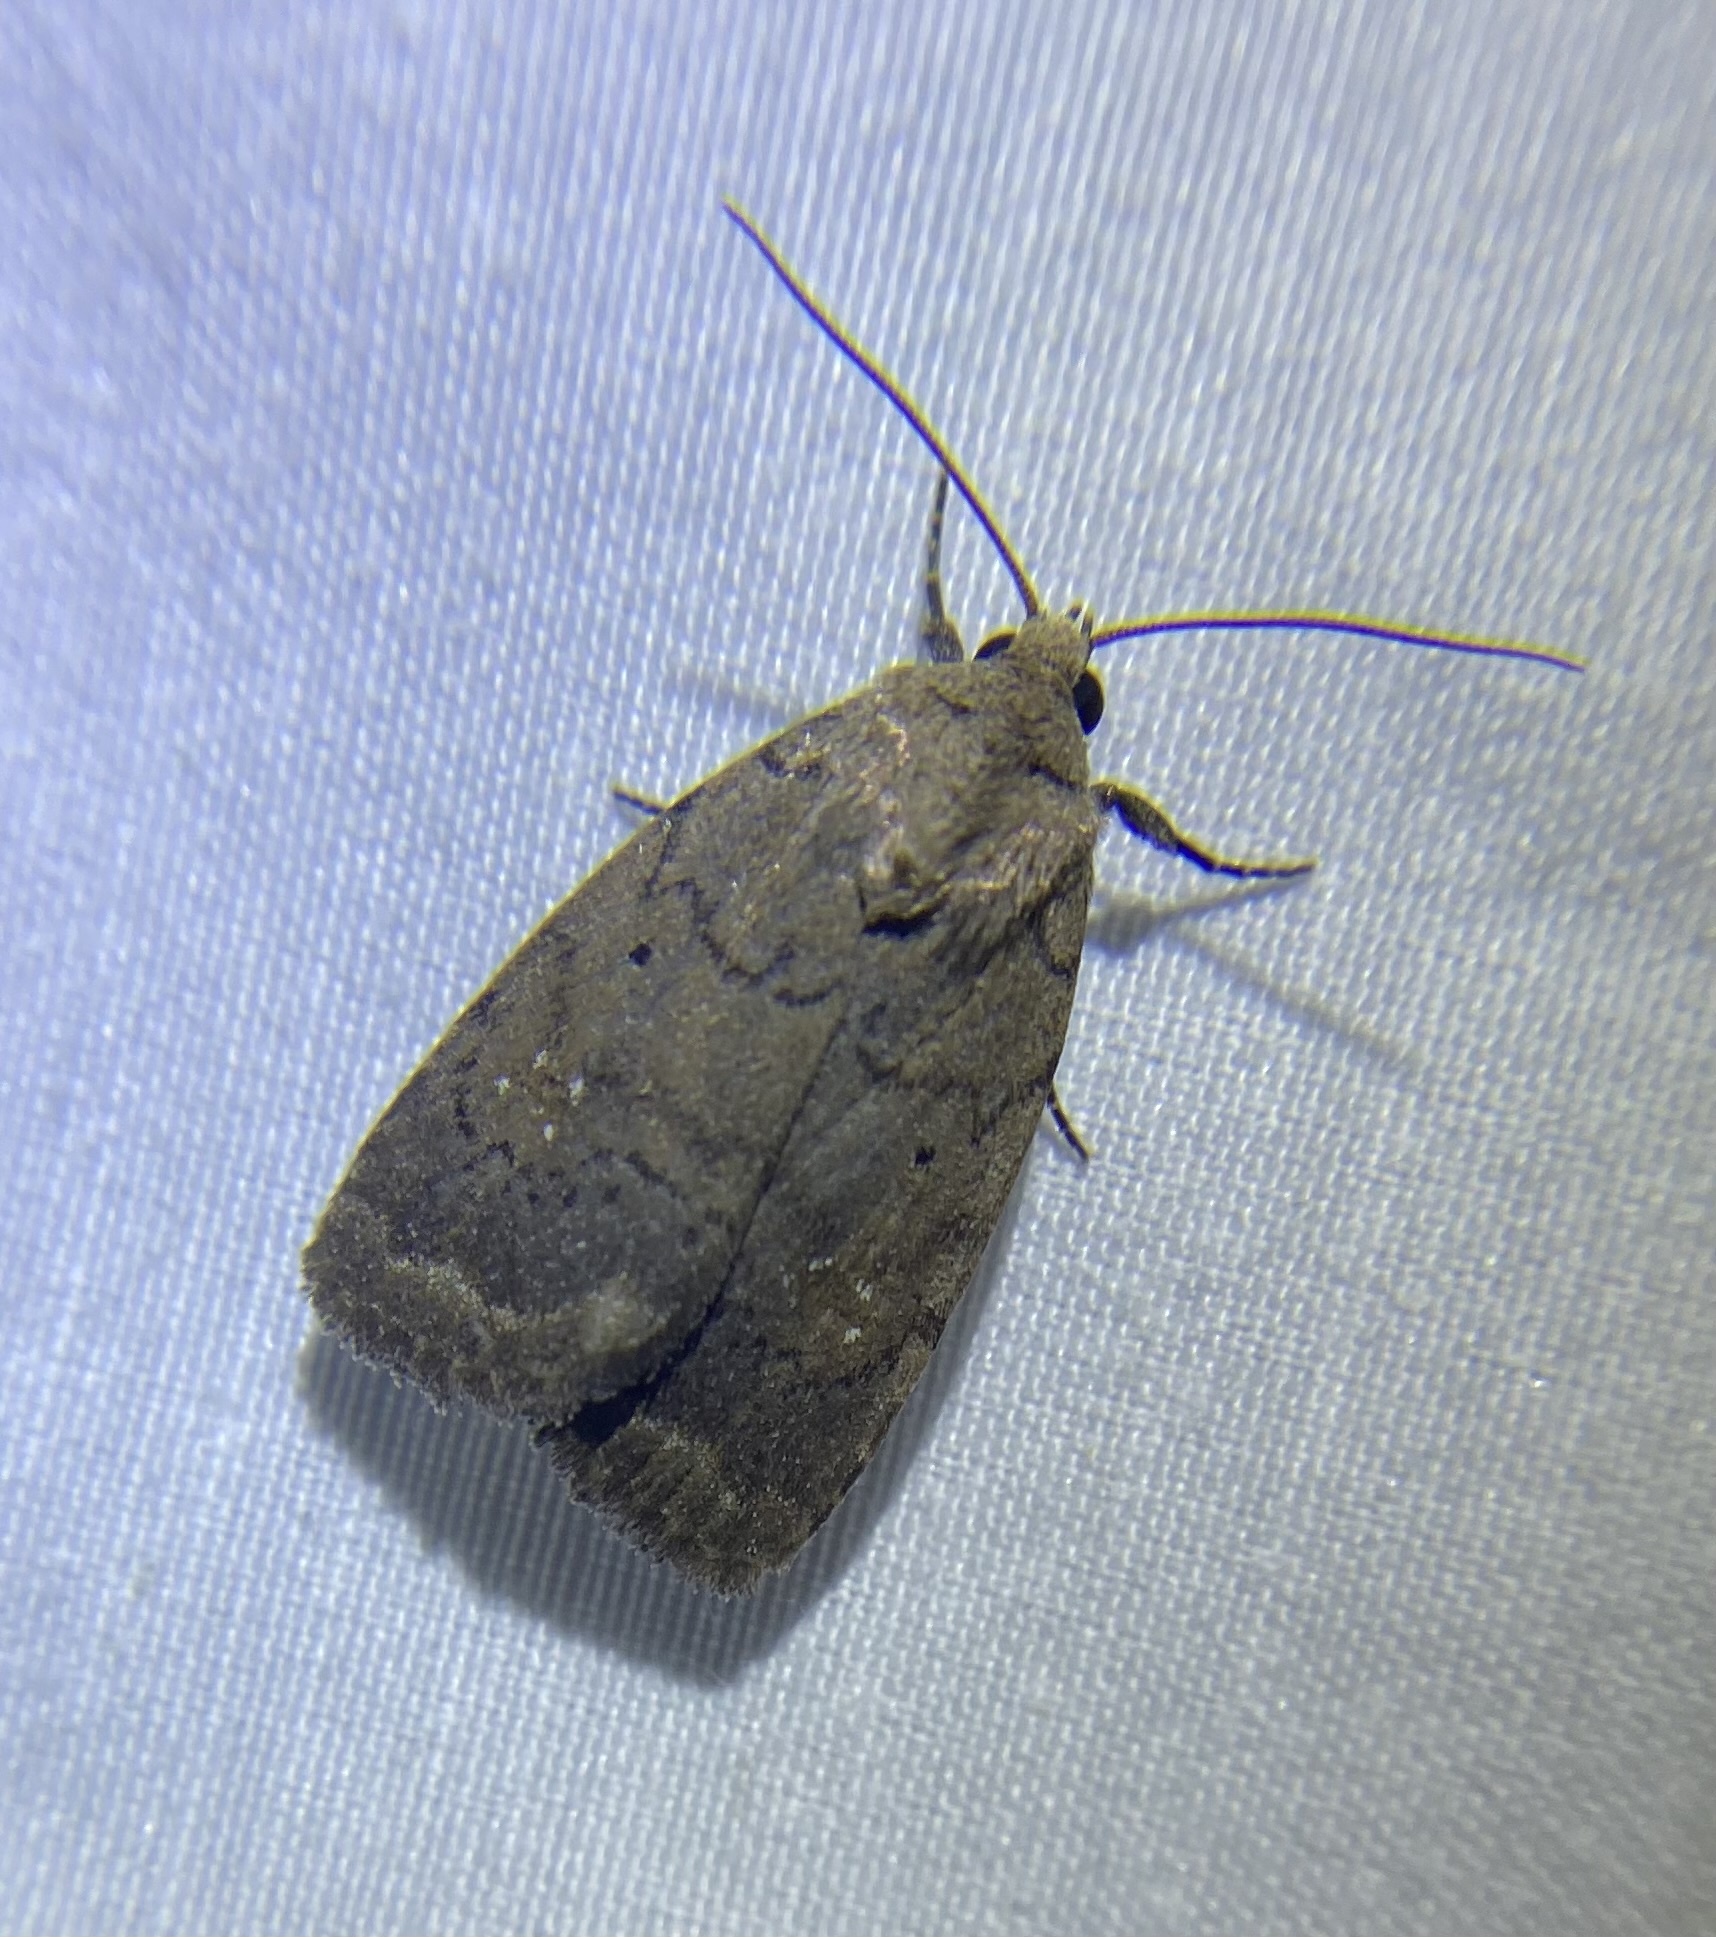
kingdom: Animalia
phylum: Arthropoda
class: Insecta
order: Lepidoptera
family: Noctuidae
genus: Athetis
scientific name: Athetis tarda
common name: Slowpoke moth
